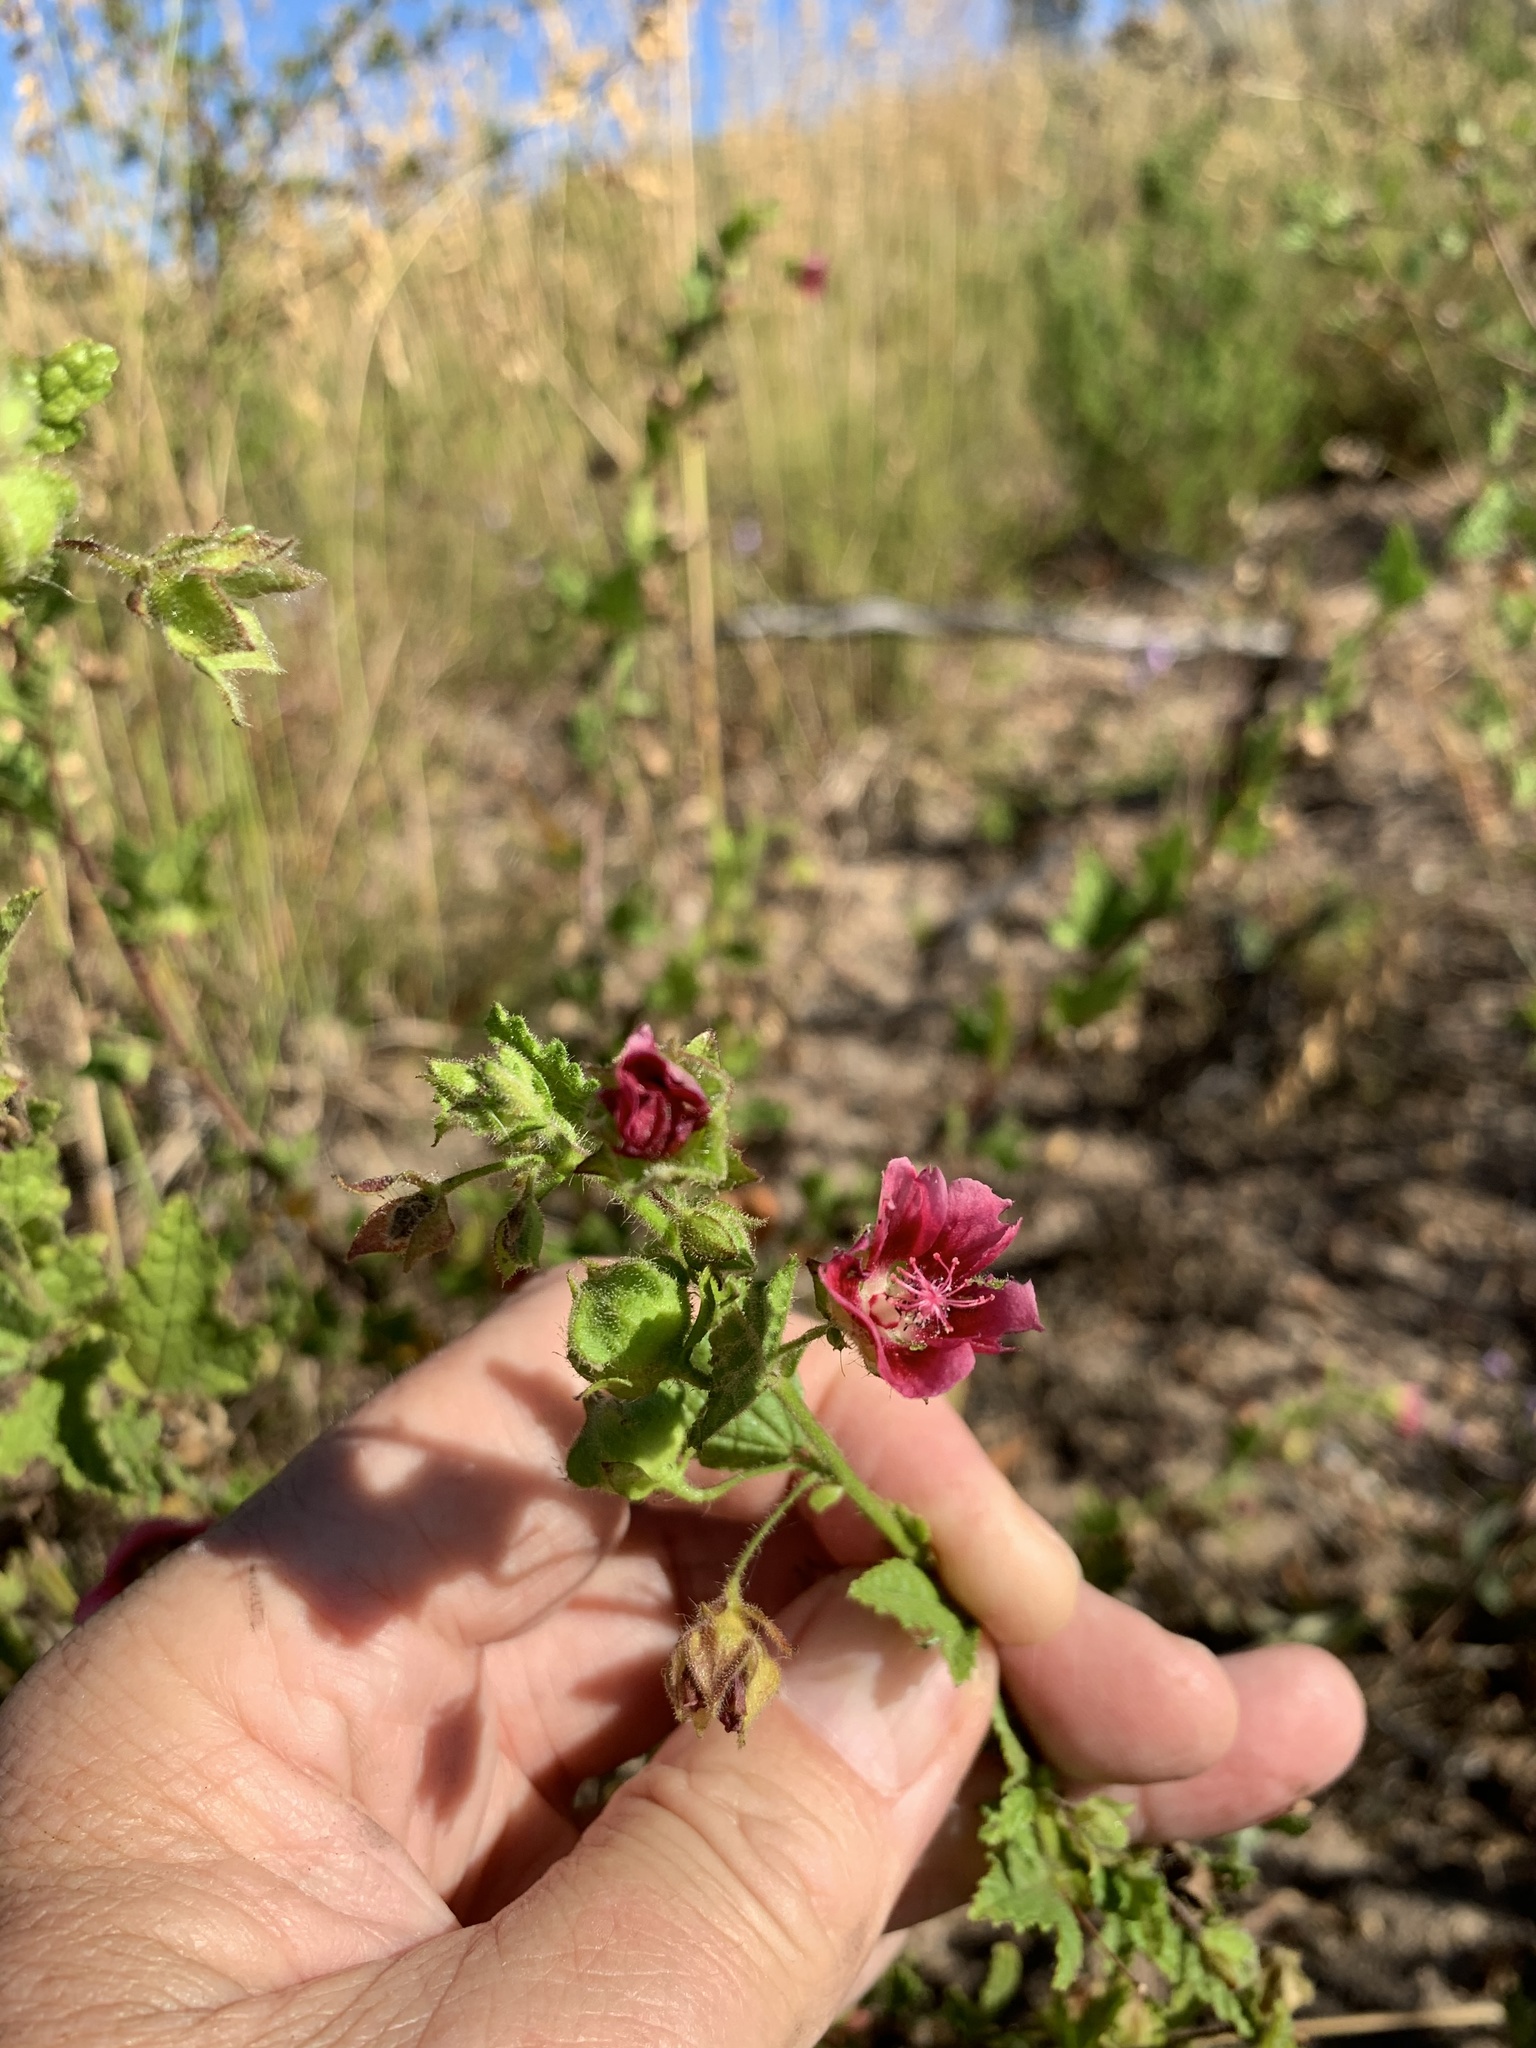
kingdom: Plantae
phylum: Tracheophyta
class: Magnoliopsida
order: Malvales
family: Malvaceae
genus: Anisodontea
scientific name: Anisodontea scabrosa
